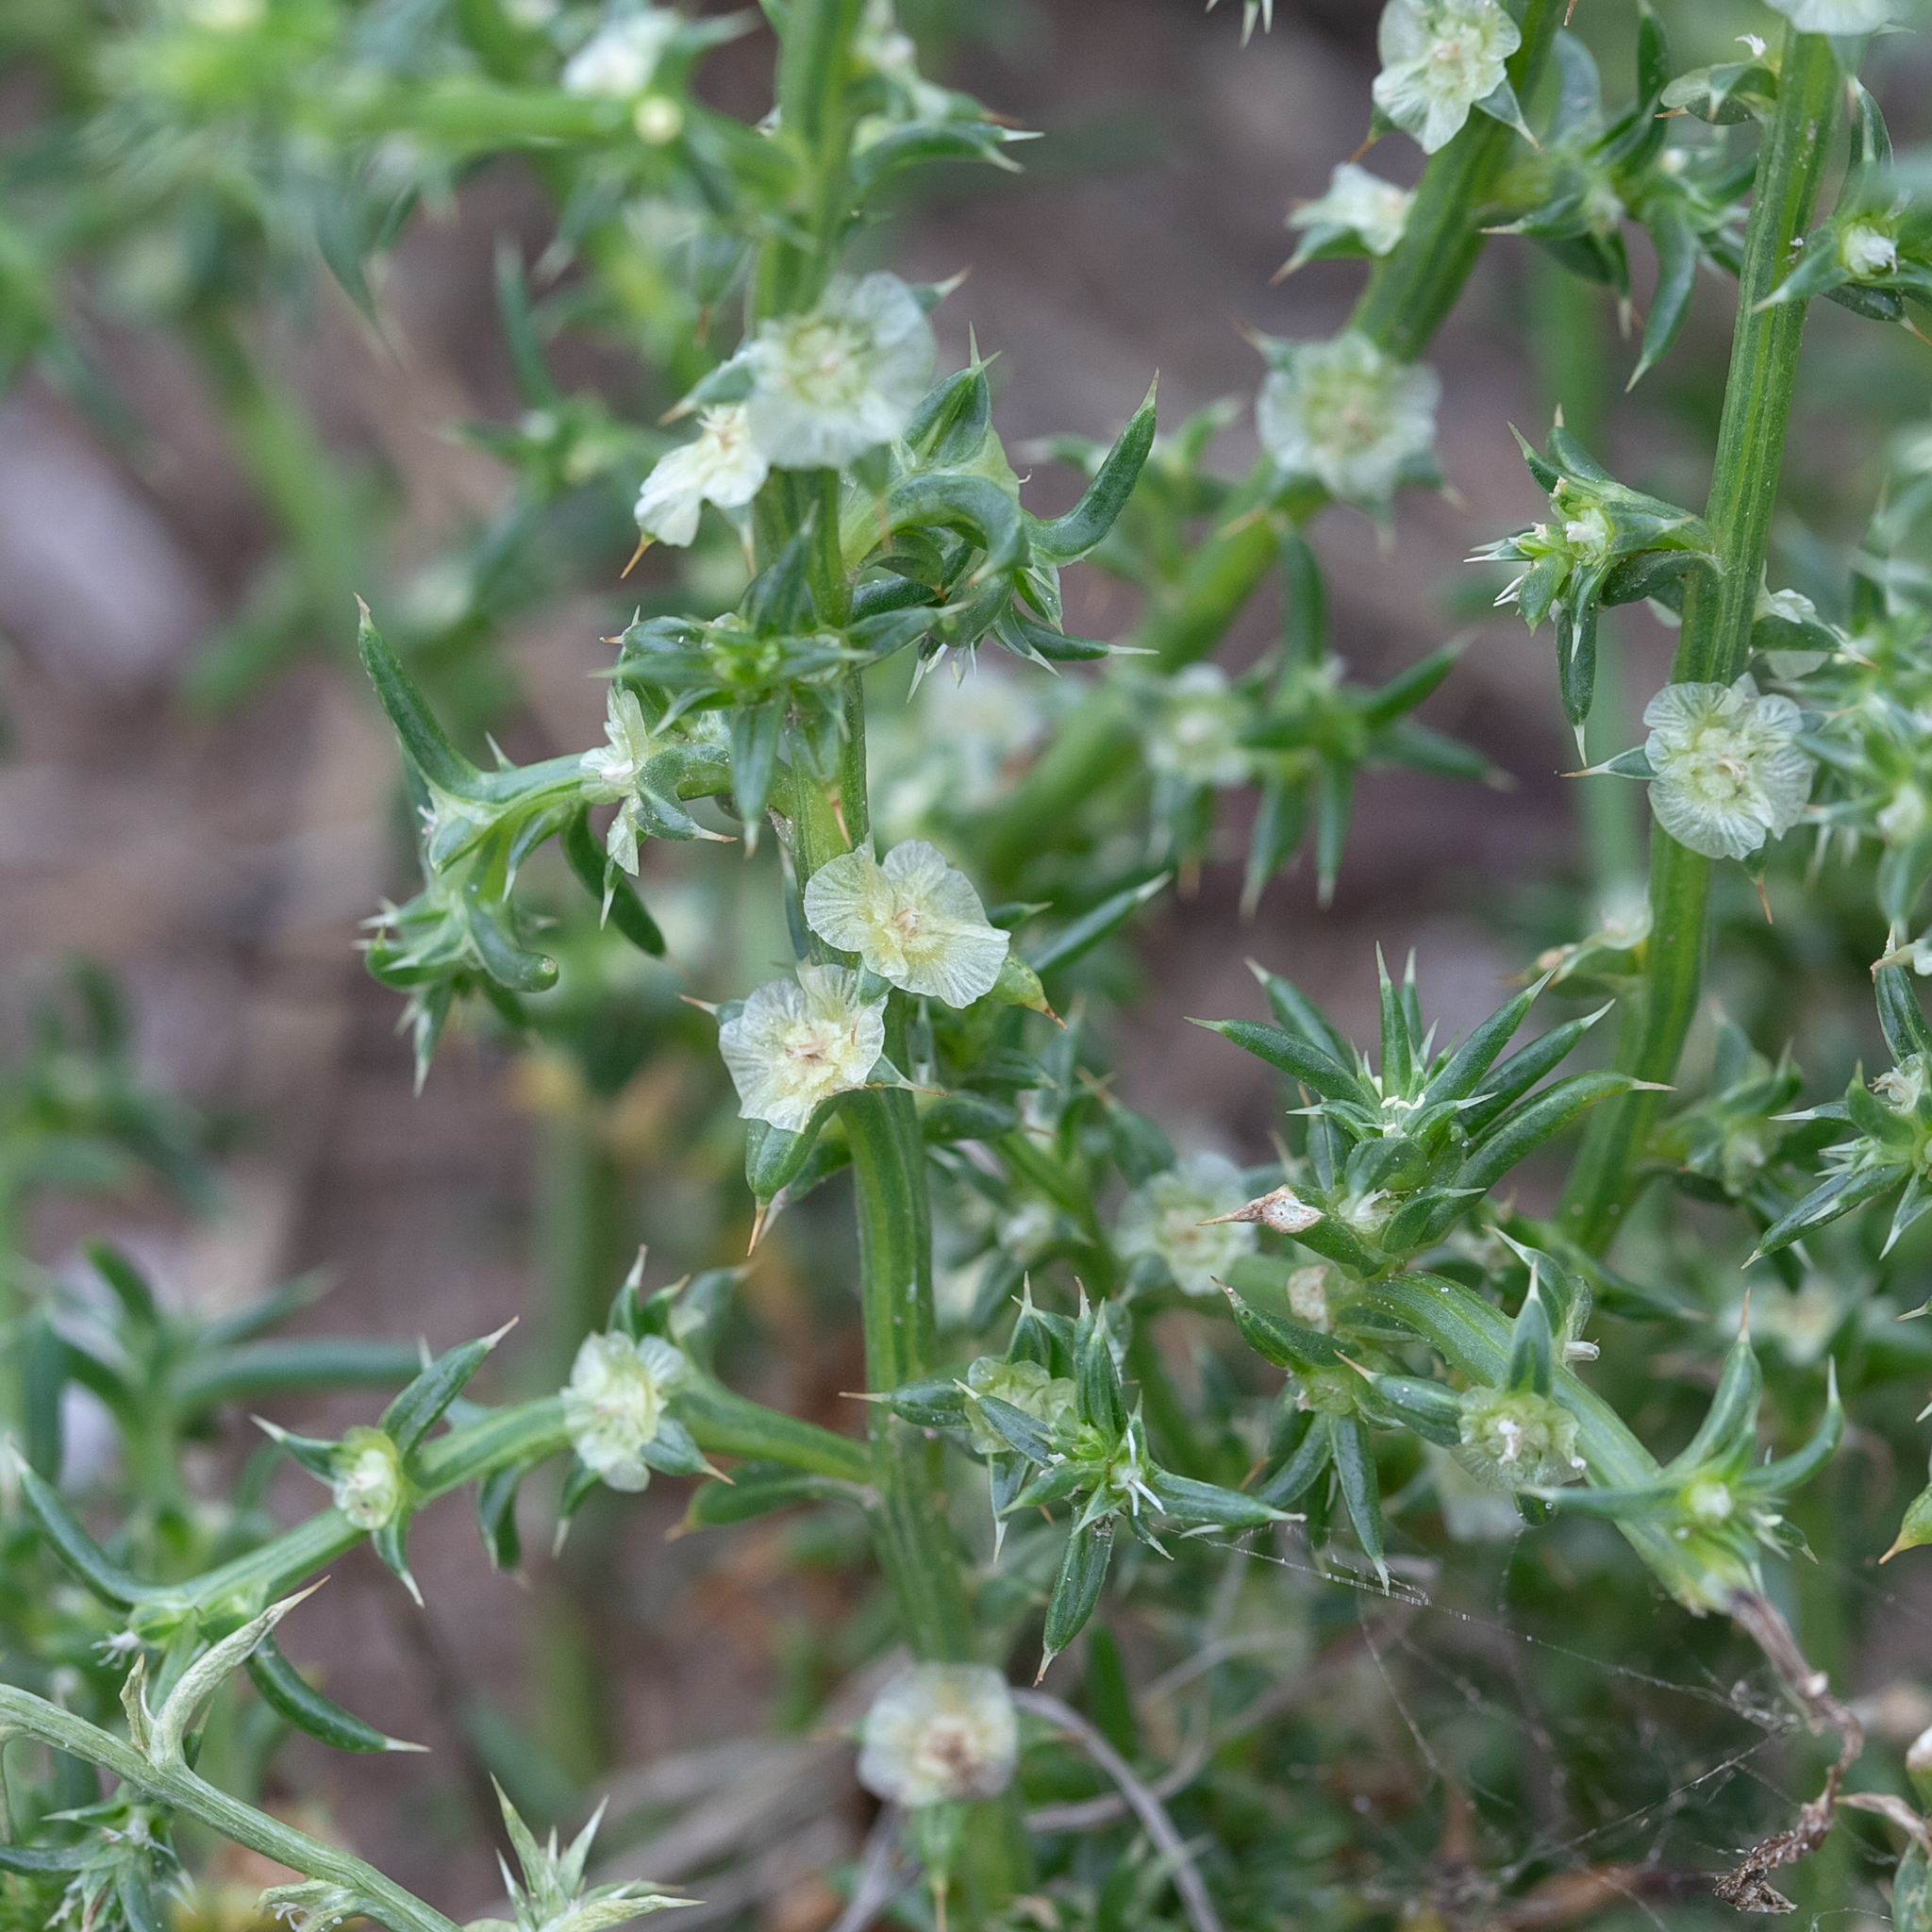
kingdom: Plantae
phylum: Tracheophyta
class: Magnoliopsida
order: Caryophyllales
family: Amaranthaceae
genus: Salsola
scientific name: Salsola australis
